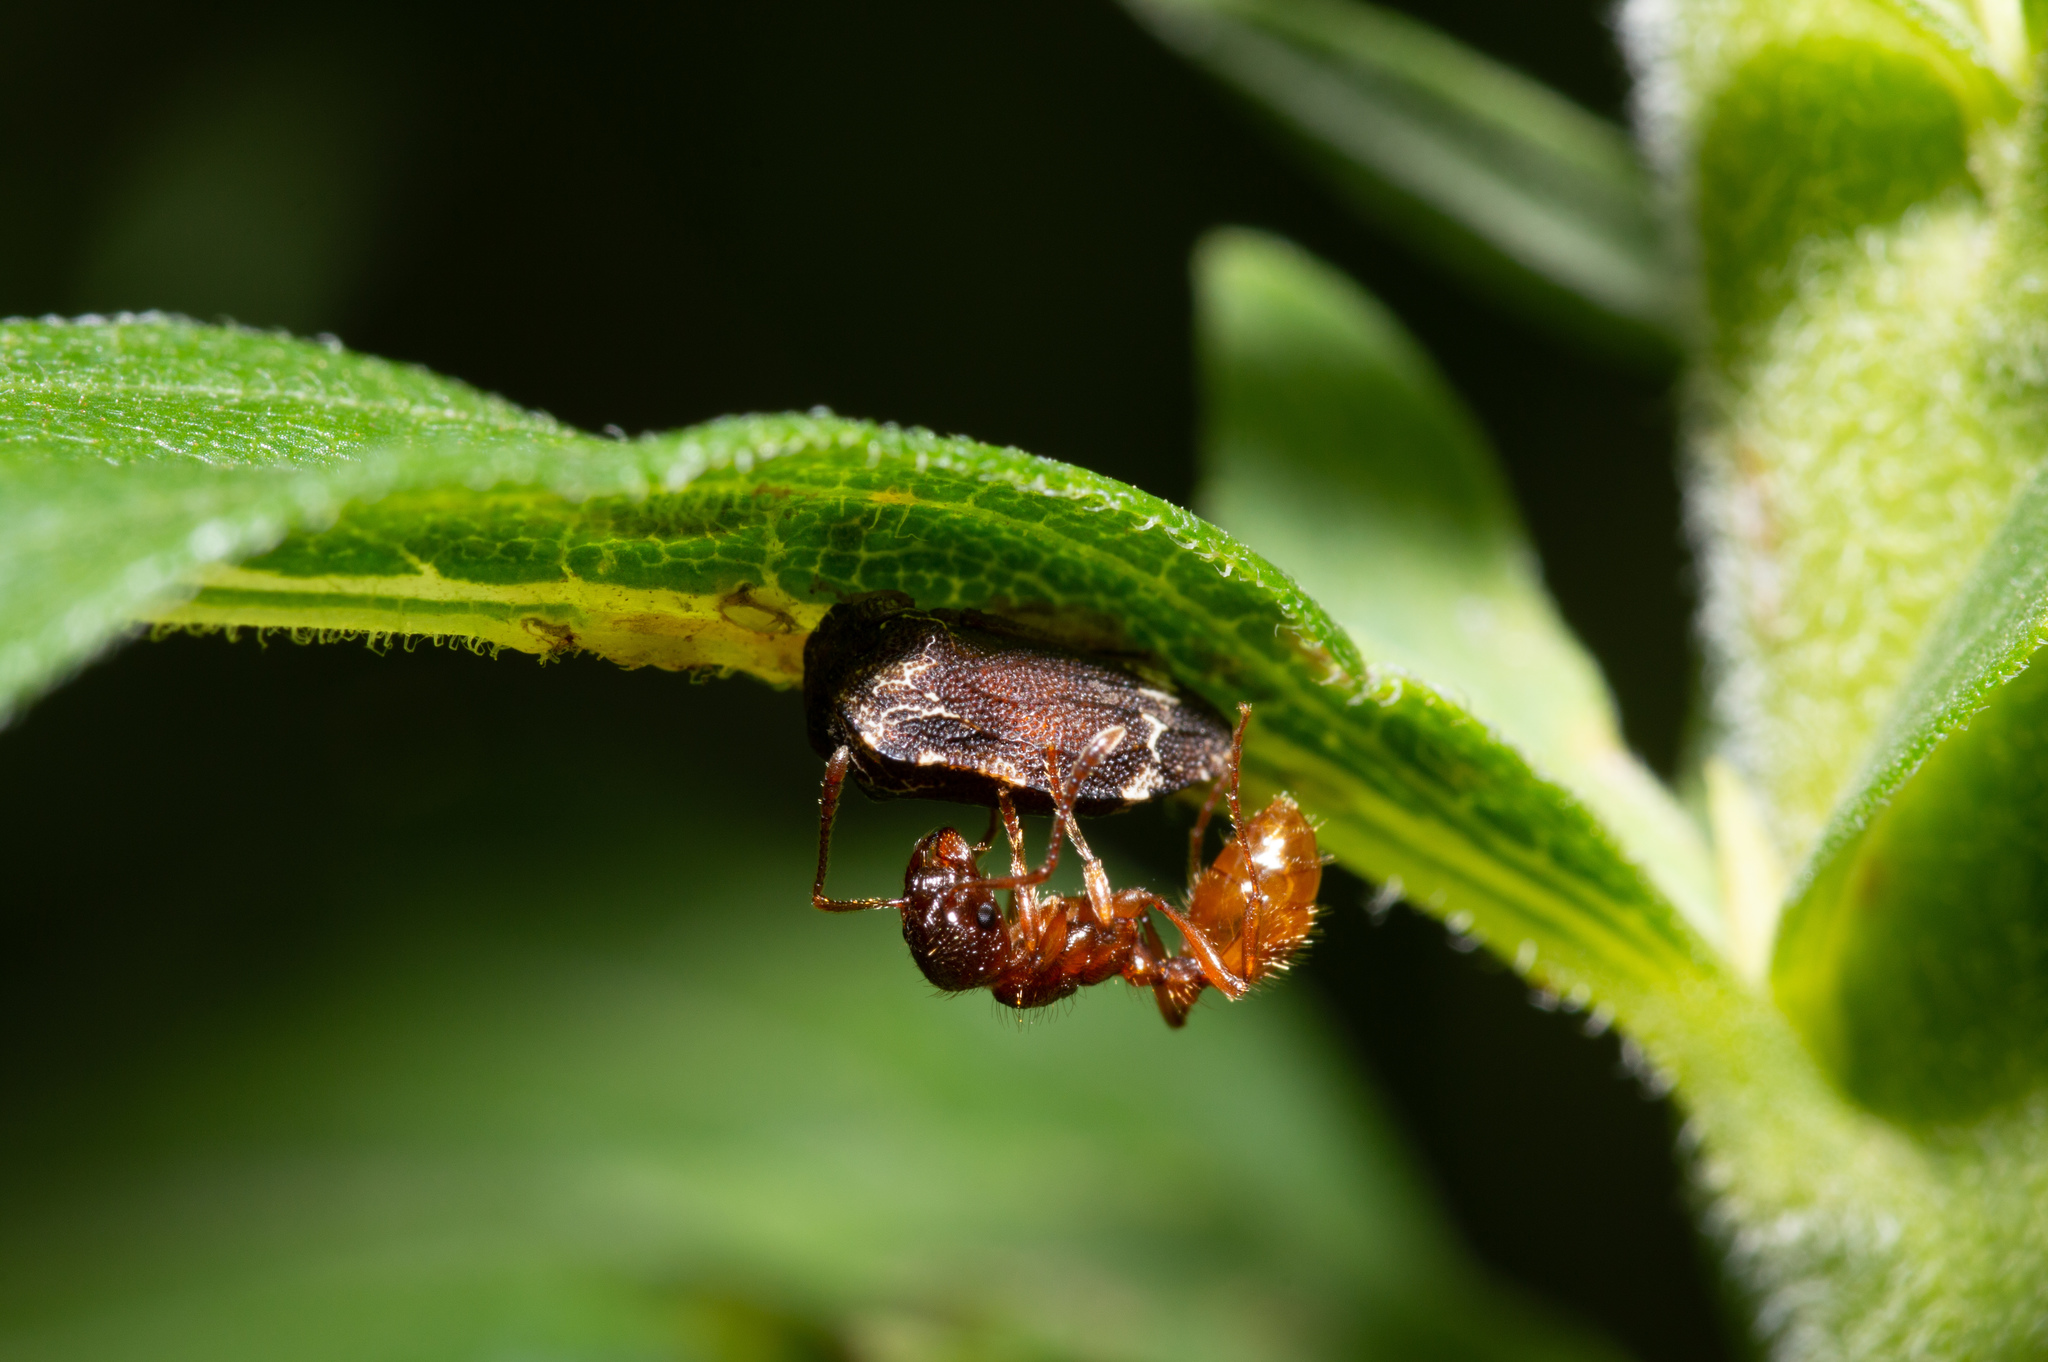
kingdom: Animalia
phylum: Arthropoda
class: Insecta
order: Hemiptera
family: Membracidae
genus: Publilia
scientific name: Publilia concava
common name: Aster treehopper
